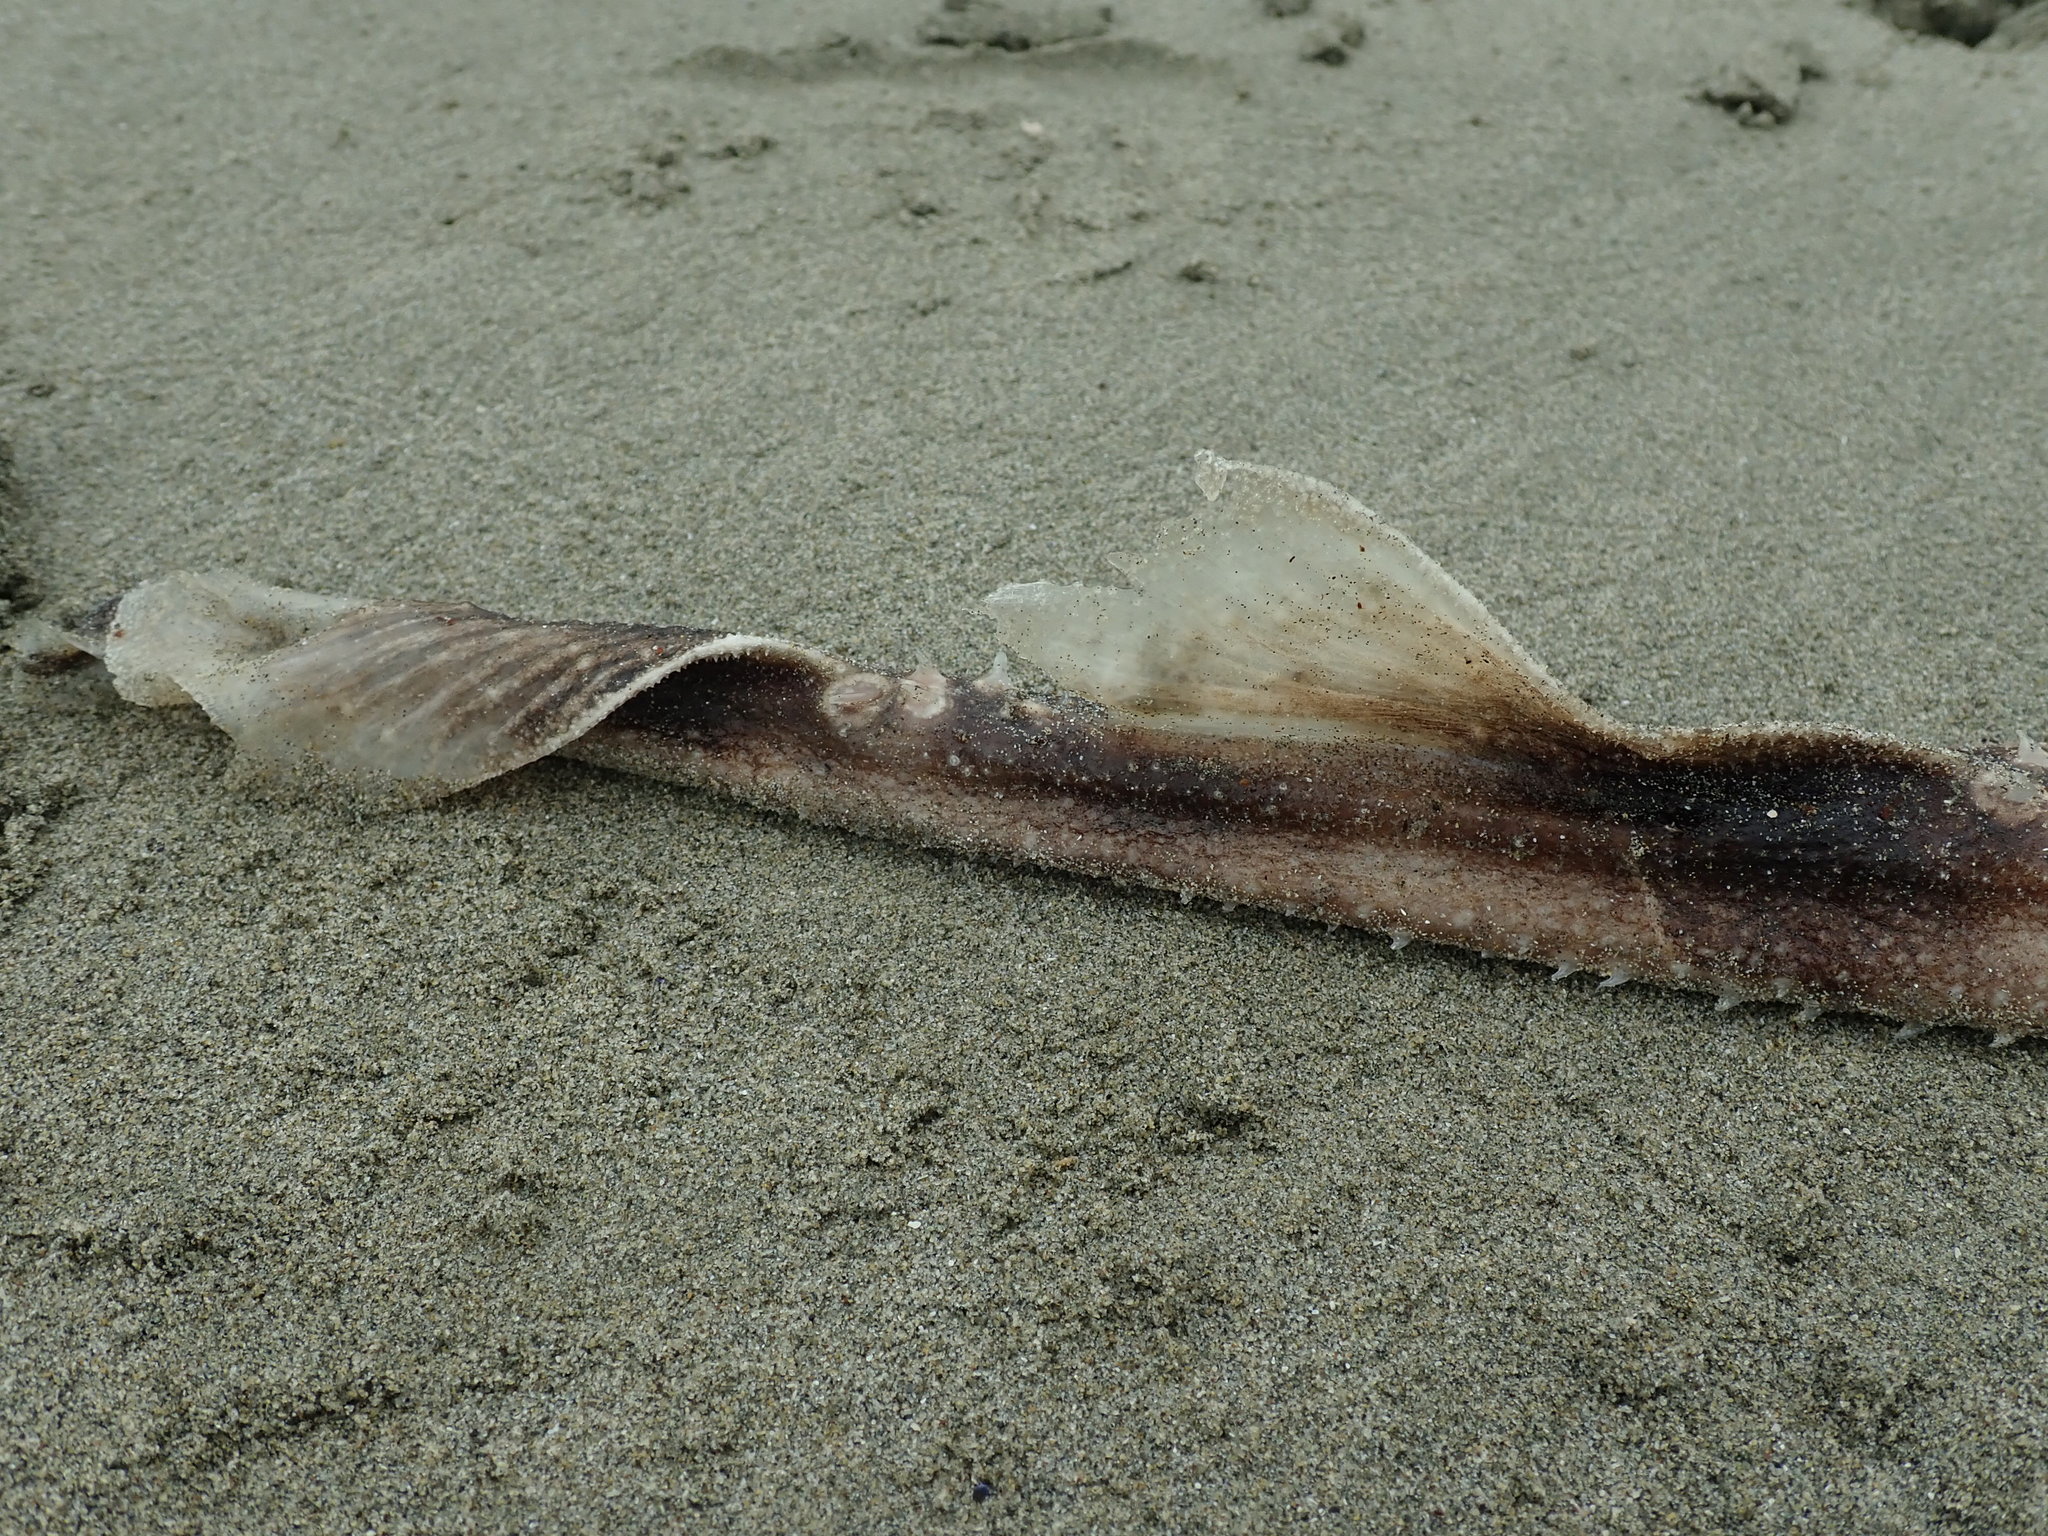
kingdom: Animalia
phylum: Chordata
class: Elasmobranchii
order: Rajiformes
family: Rajidae
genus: Beringraja
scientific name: Beringraja binoculata
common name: Big skate
